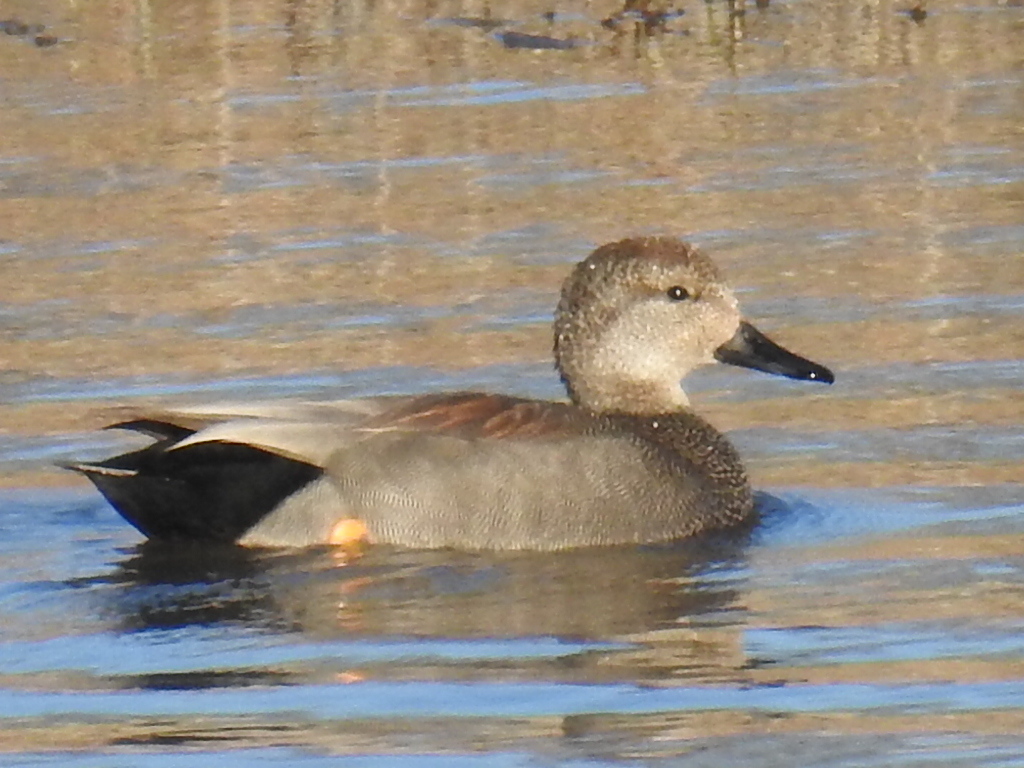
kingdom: Animalia
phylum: Chordata
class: Aves
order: Anseriformes
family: Anatidae
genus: Mareca
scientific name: Mareca strepera
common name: Gadwall
